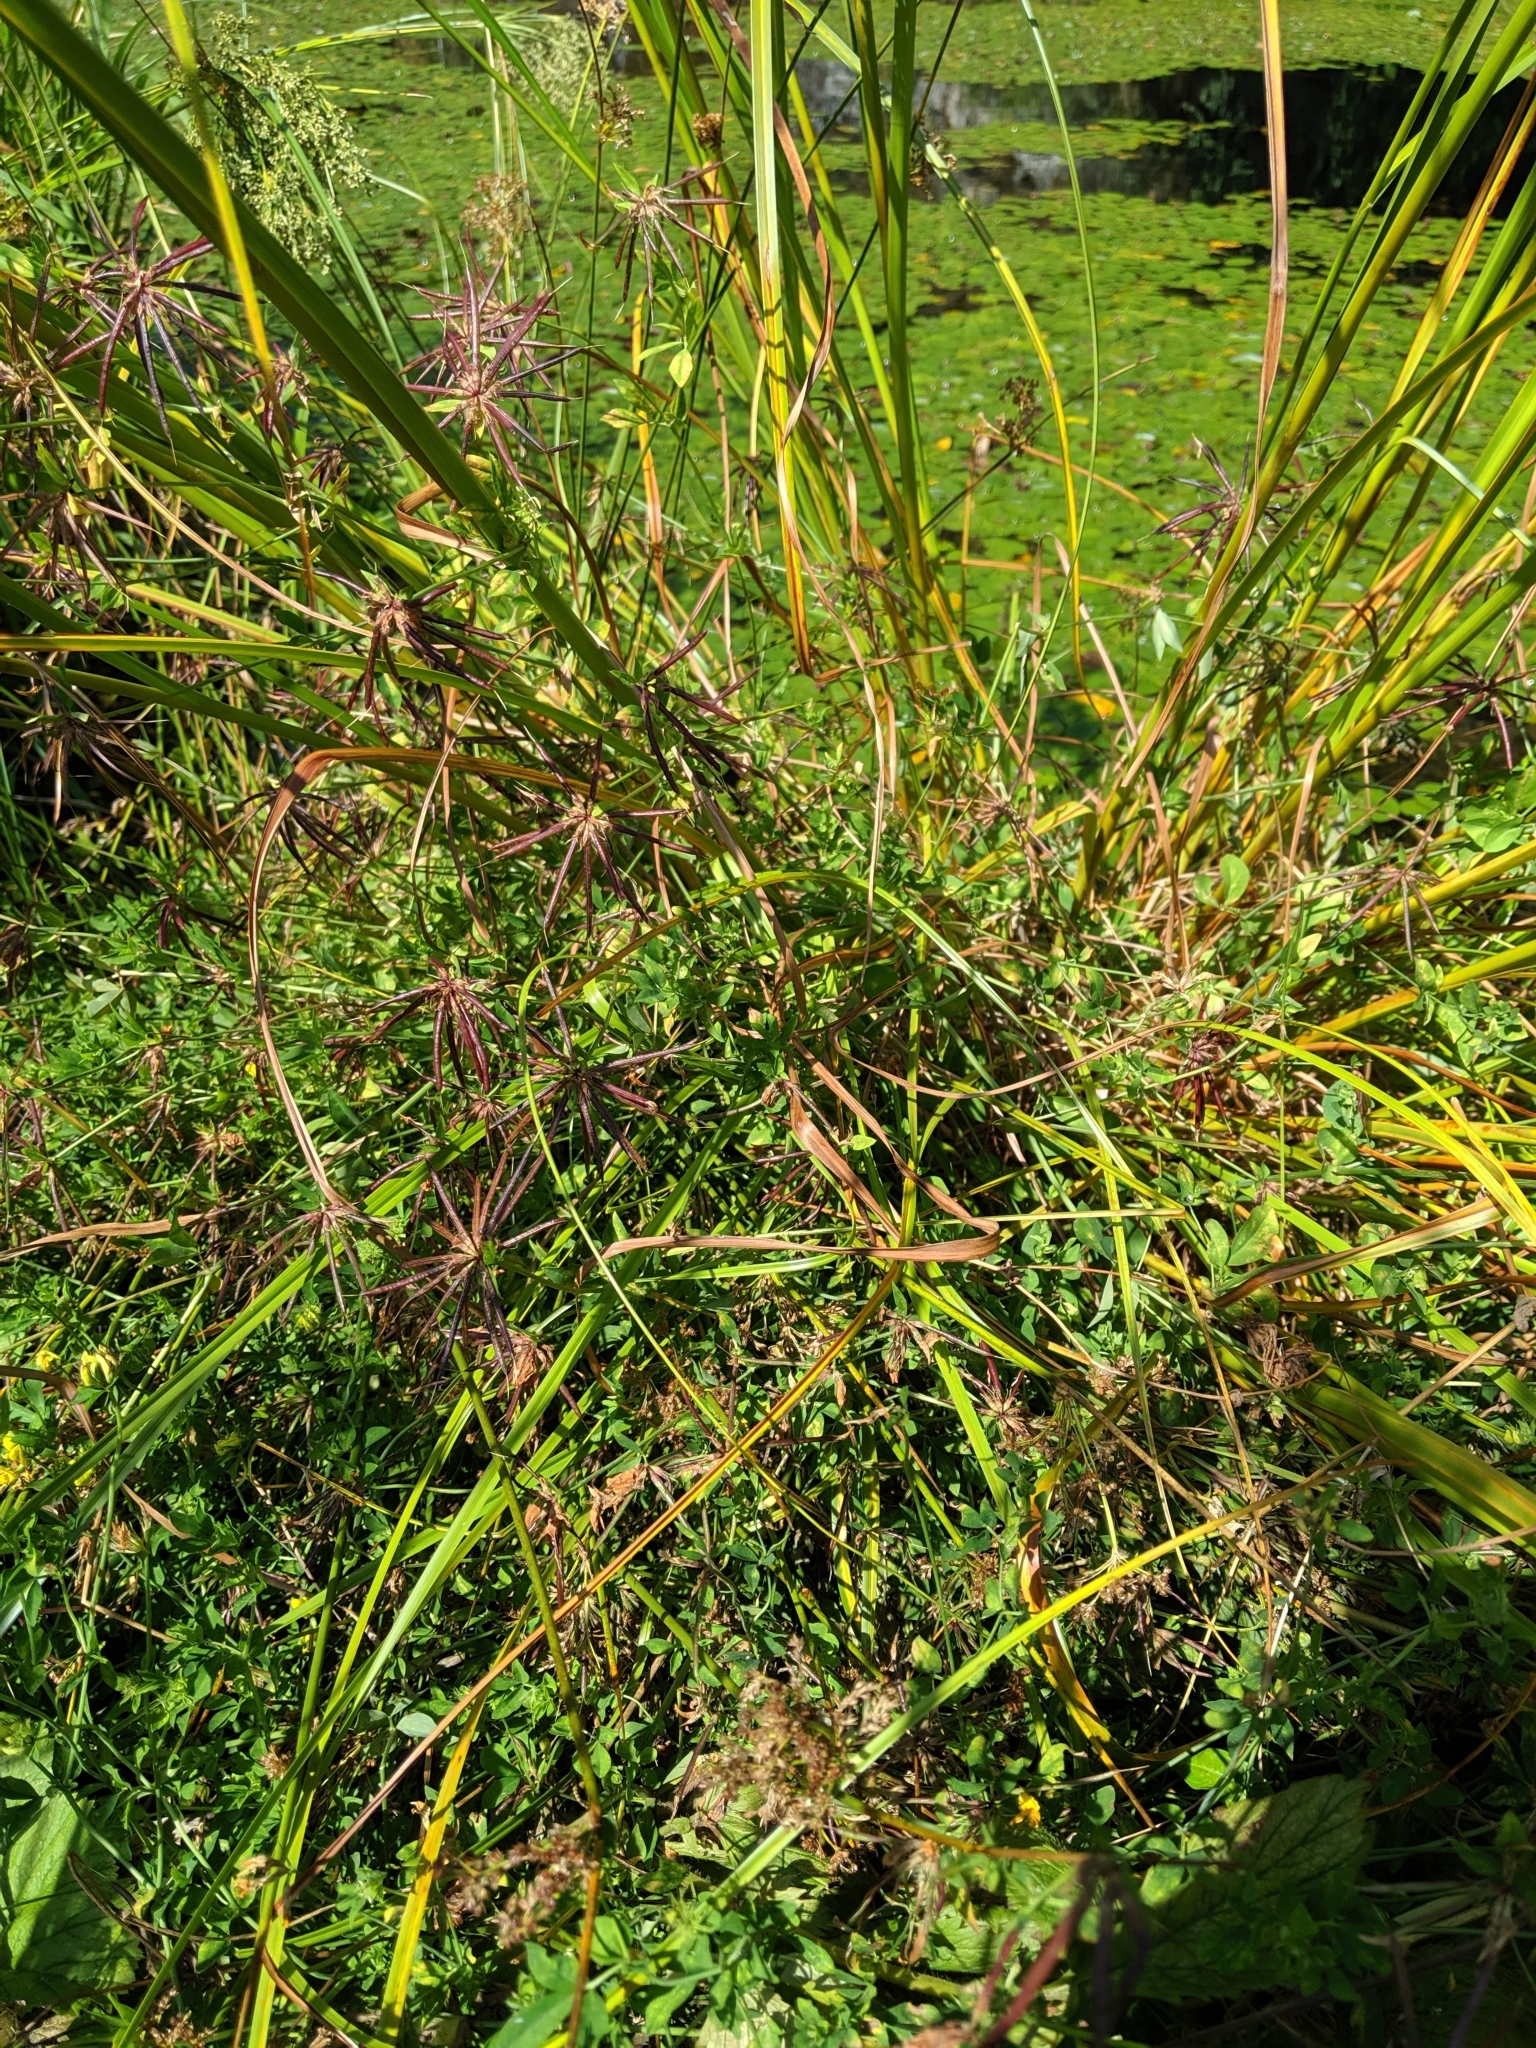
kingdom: Plantae
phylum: Tracheophyta
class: Magnoliopsida
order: Fabales
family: Fabaceae
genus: Lotus
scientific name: Lotus pedunculatus
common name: Greater birdsfoot-trefoil
